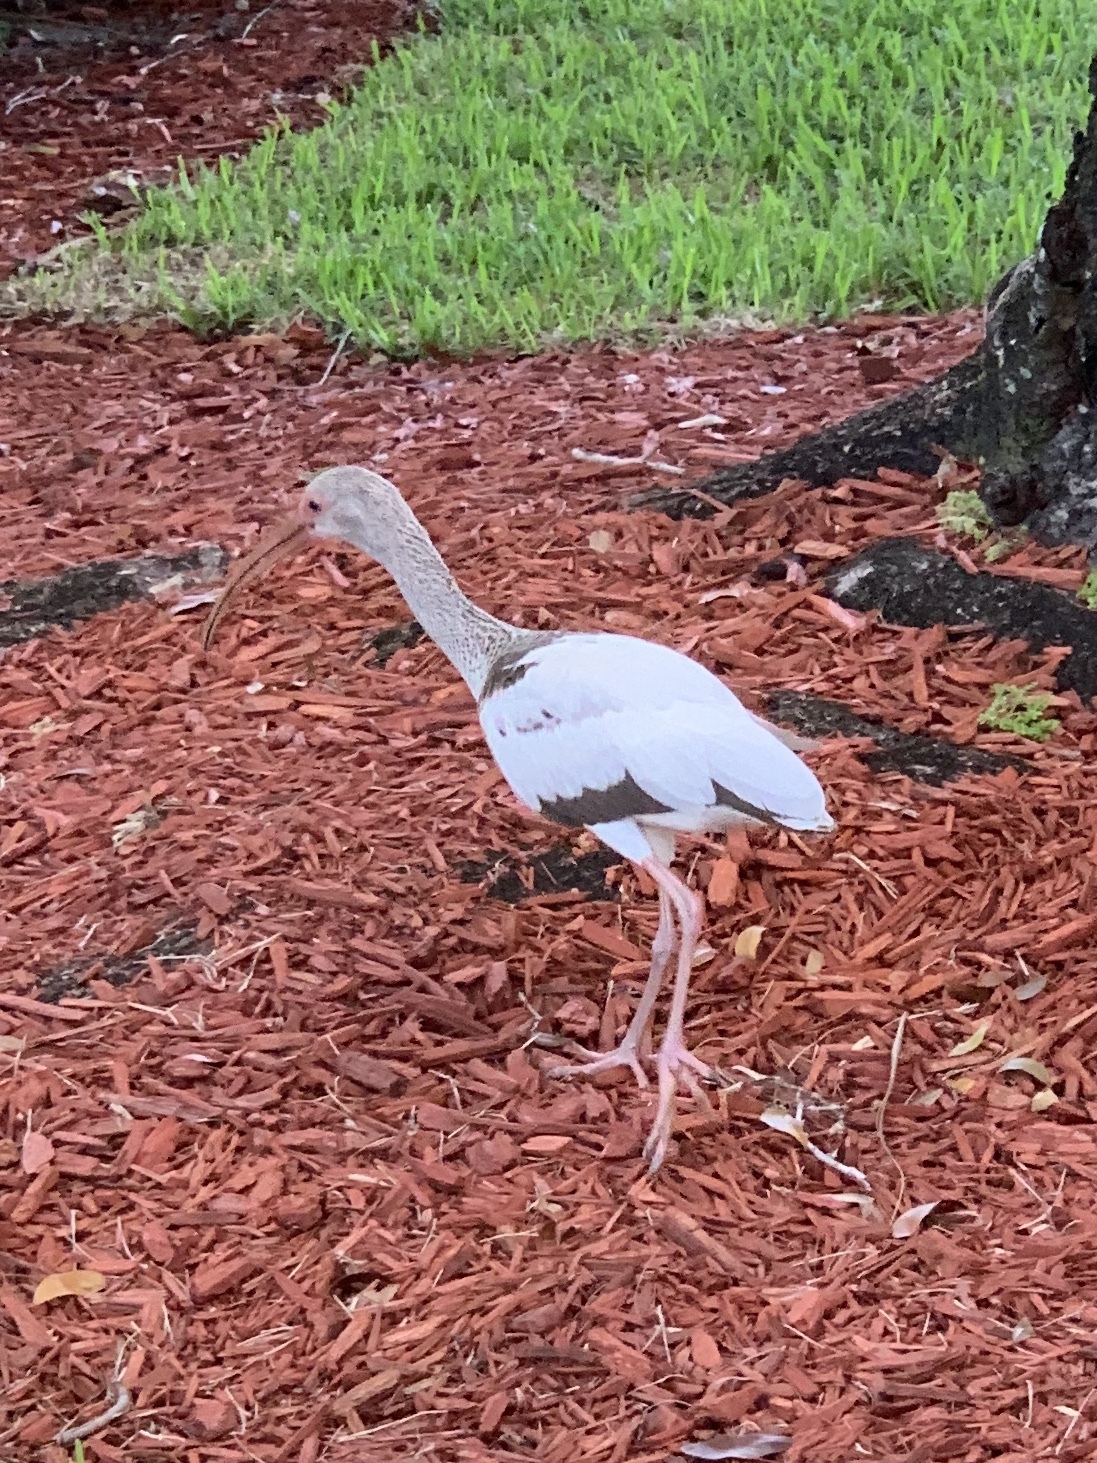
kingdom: Animalia
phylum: Chordata
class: Aves
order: Pelecaniformes
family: Threskiornithidae
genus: Eudocimus
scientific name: Eudocimus albus
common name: White ibis
